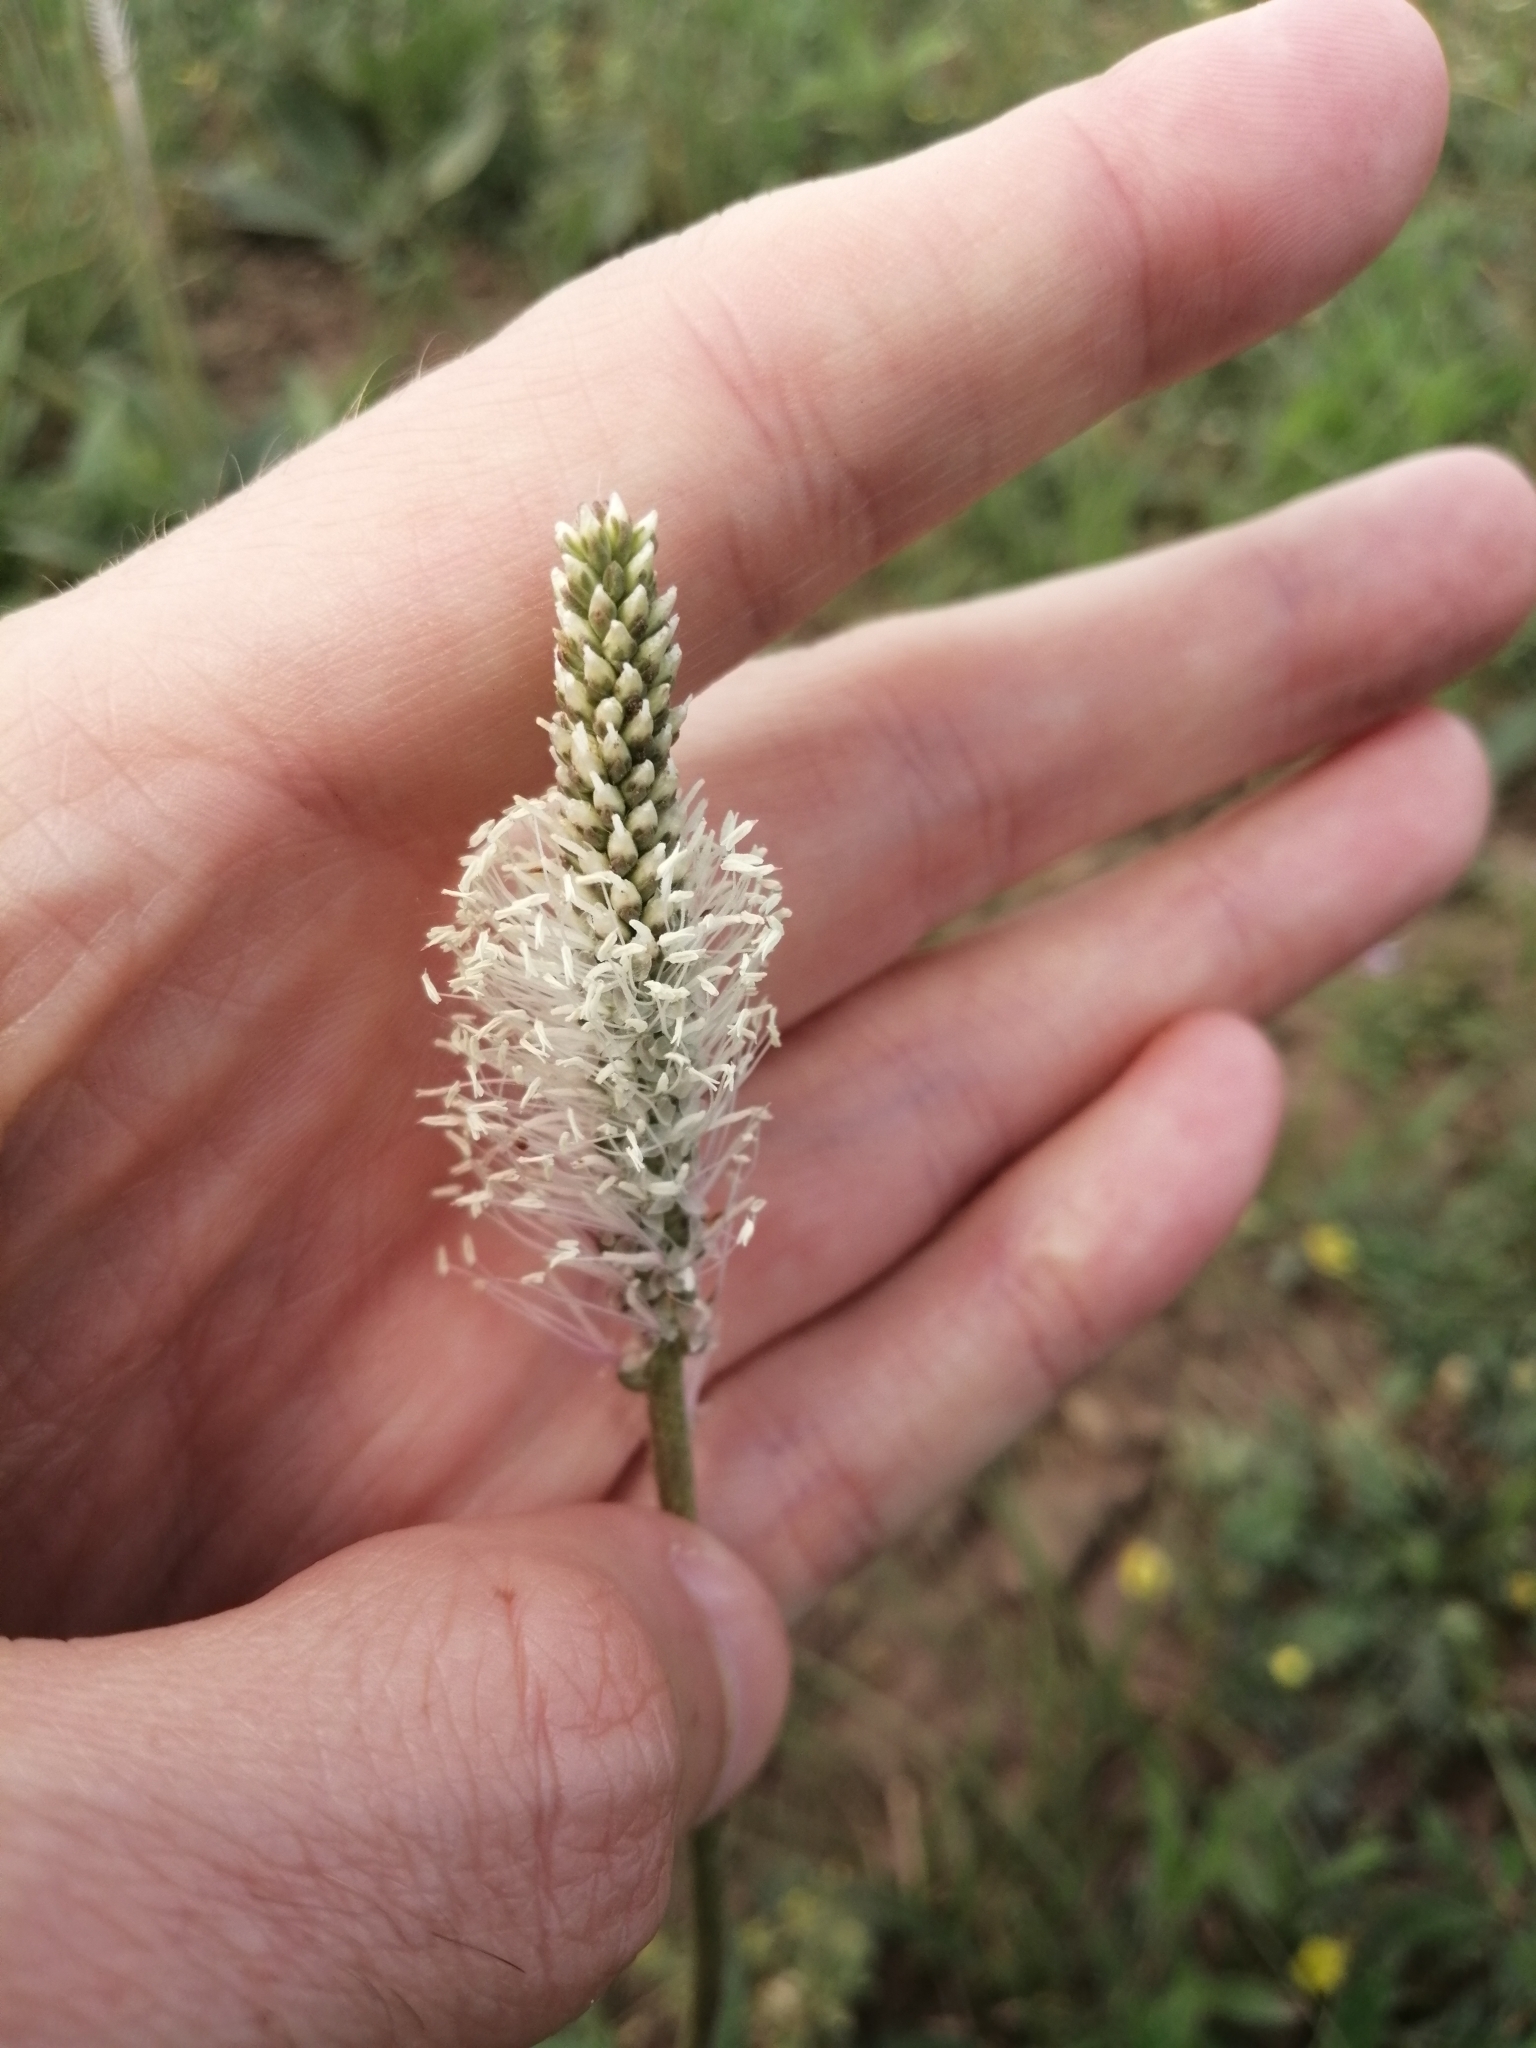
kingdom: Plantae
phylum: Tracheophyta
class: Magnoliopsida
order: Lamiales
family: Plantaginaceae
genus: Plantago
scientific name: Plantago media
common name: Hoary plantain
